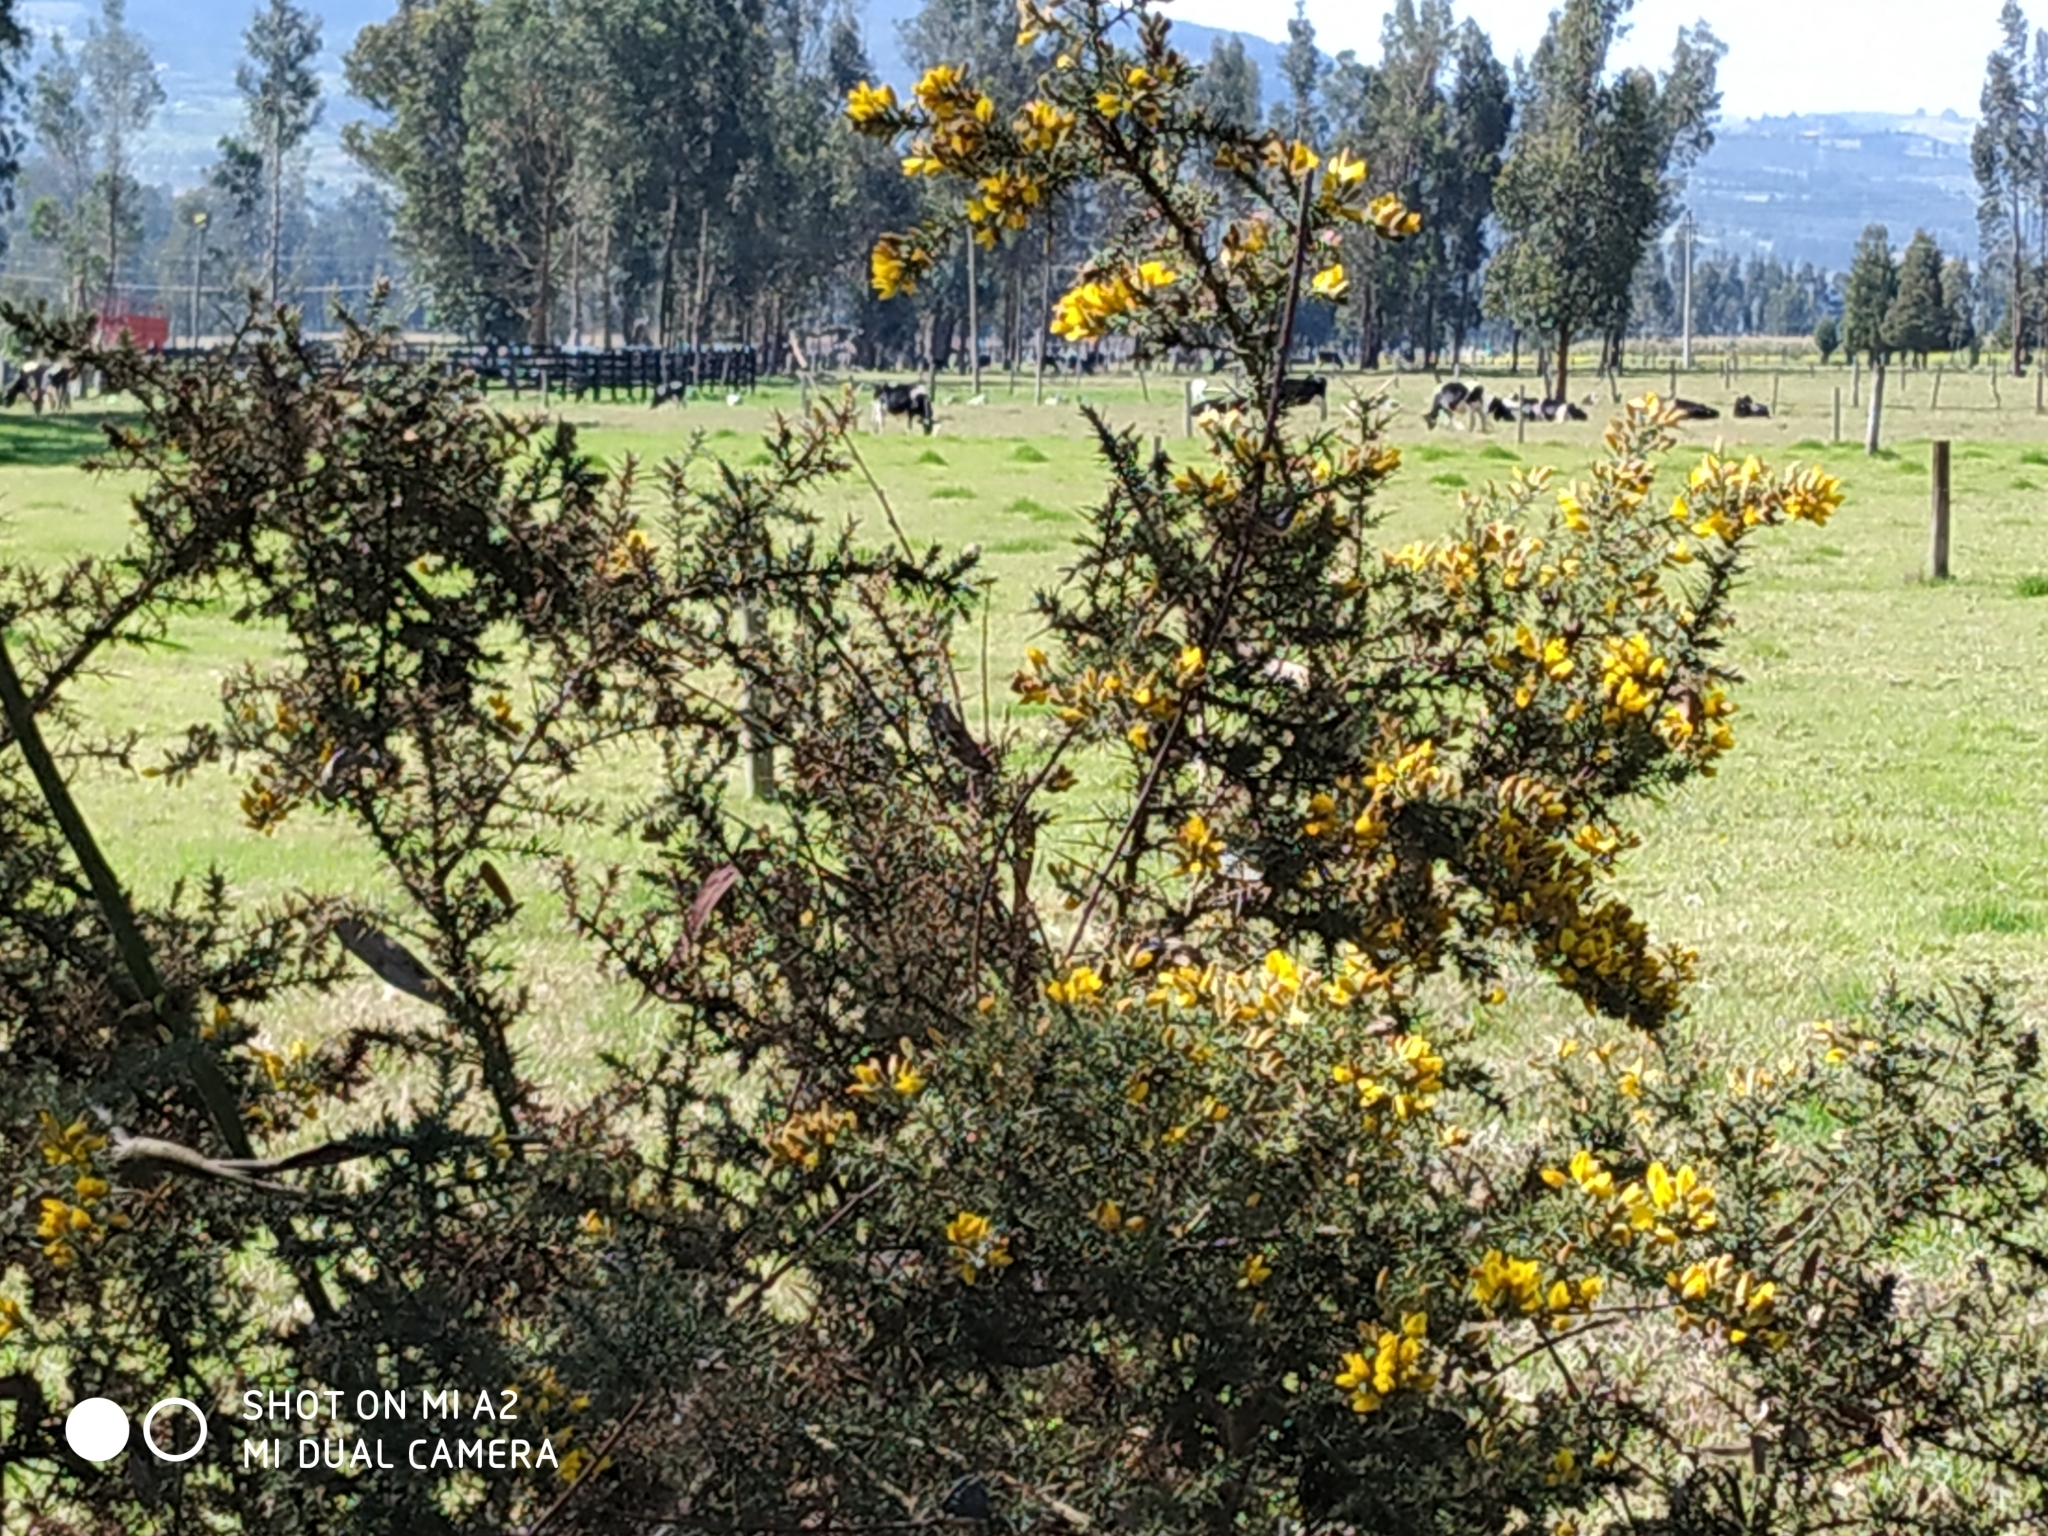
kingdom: Plantae
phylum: Tracheophyta
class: Magnoliopsida
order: Fabales
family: Fabaceae
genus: Ulex
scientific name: Ulex europaeus
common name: Common gorse
